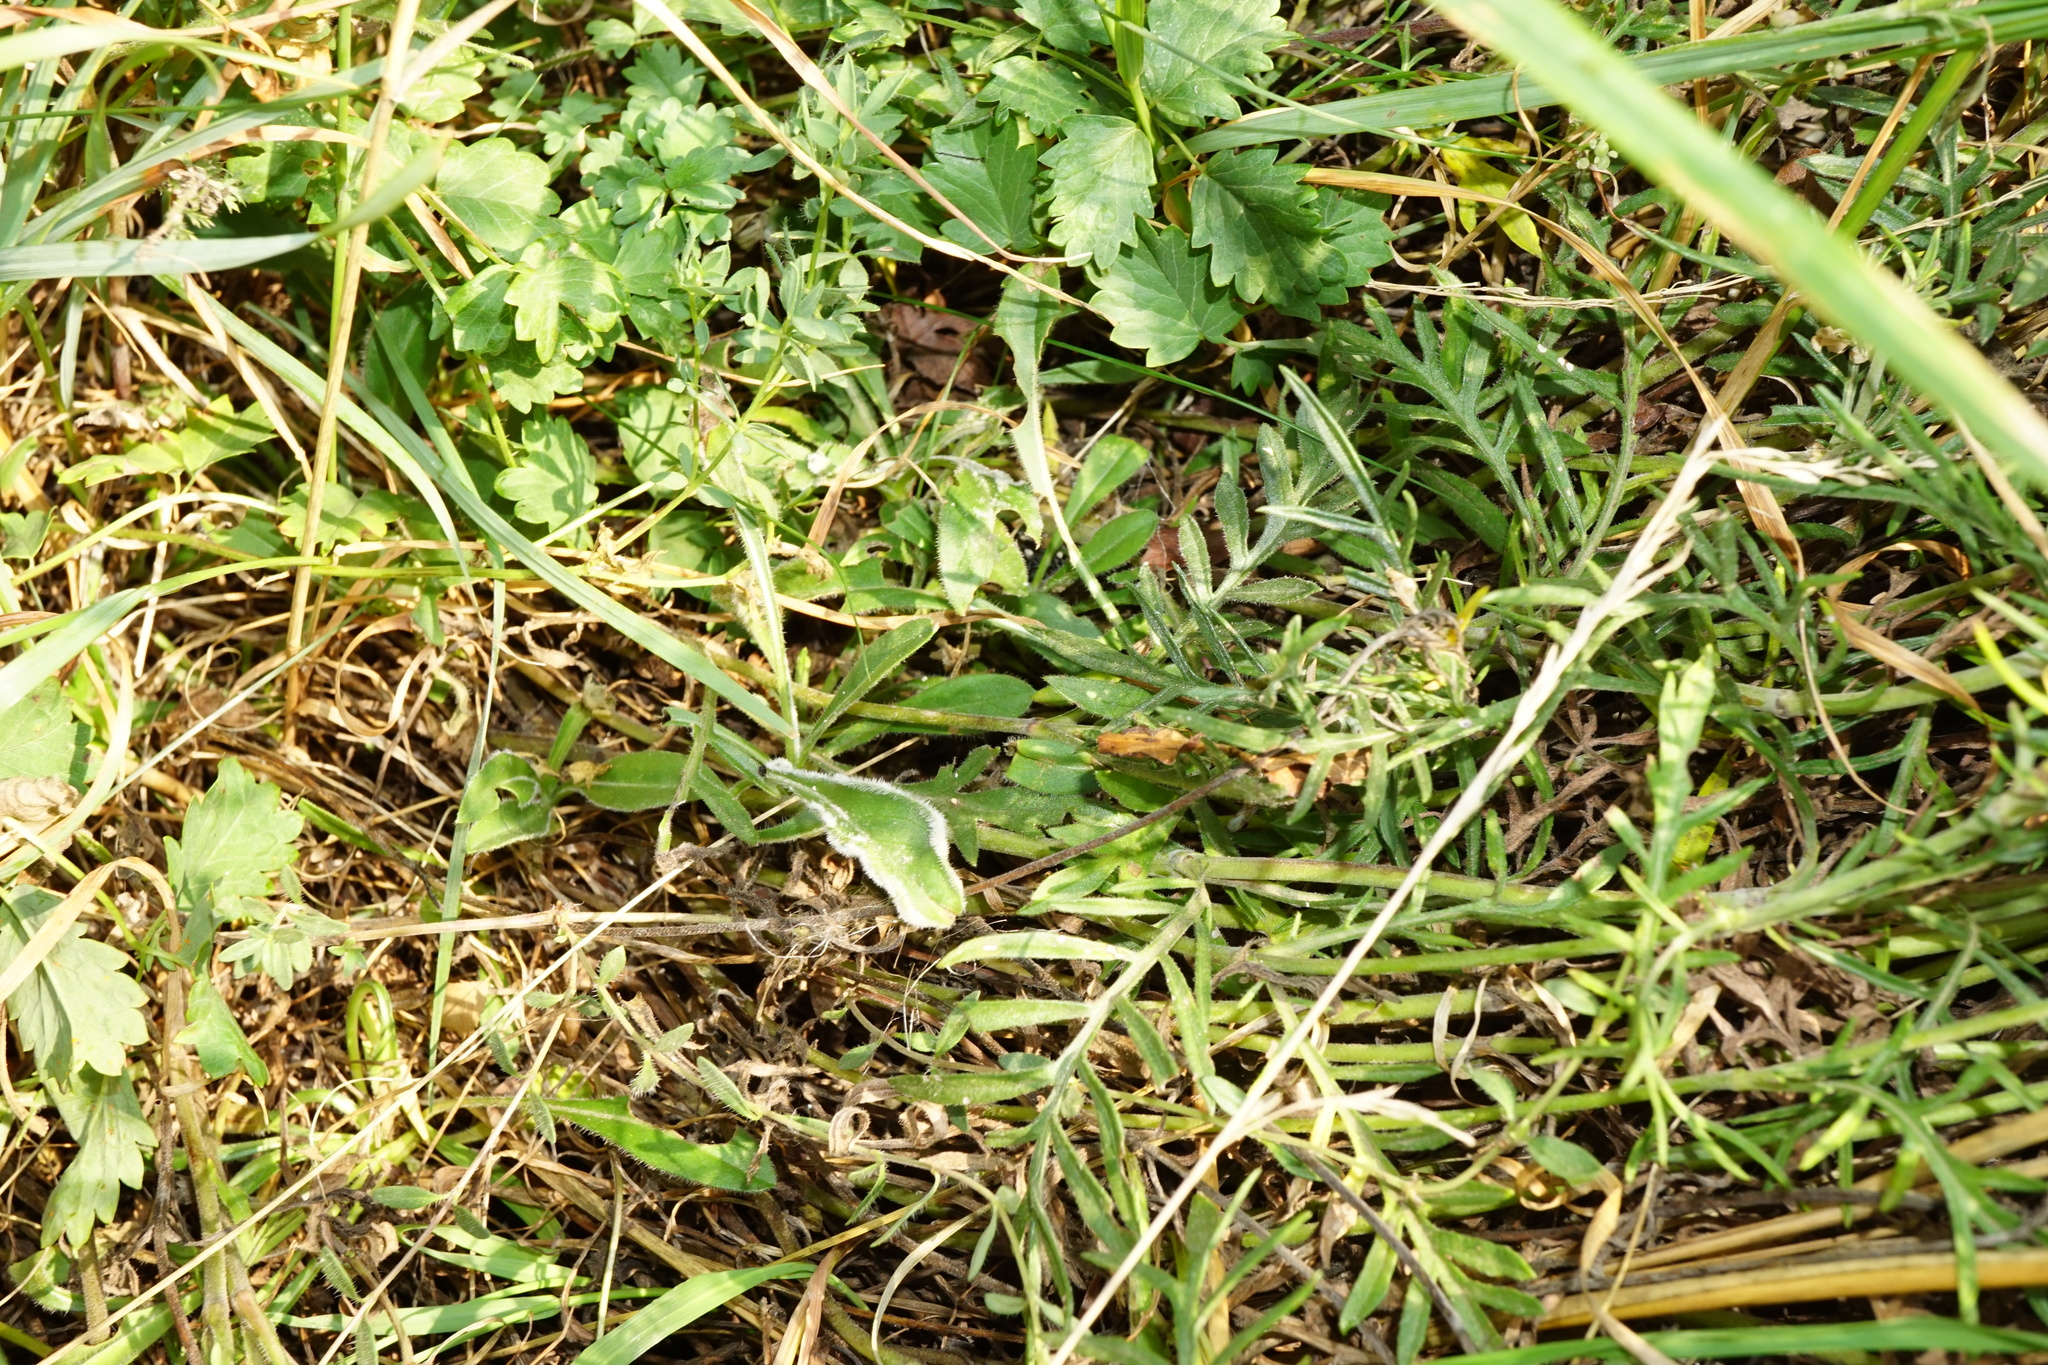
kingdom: Plantae
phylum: Tracheophyta
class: Magnoliopsida
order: Dipsacales
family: Caprifoliaceae
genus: Scabiosa
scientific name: Scabiosa canescens
